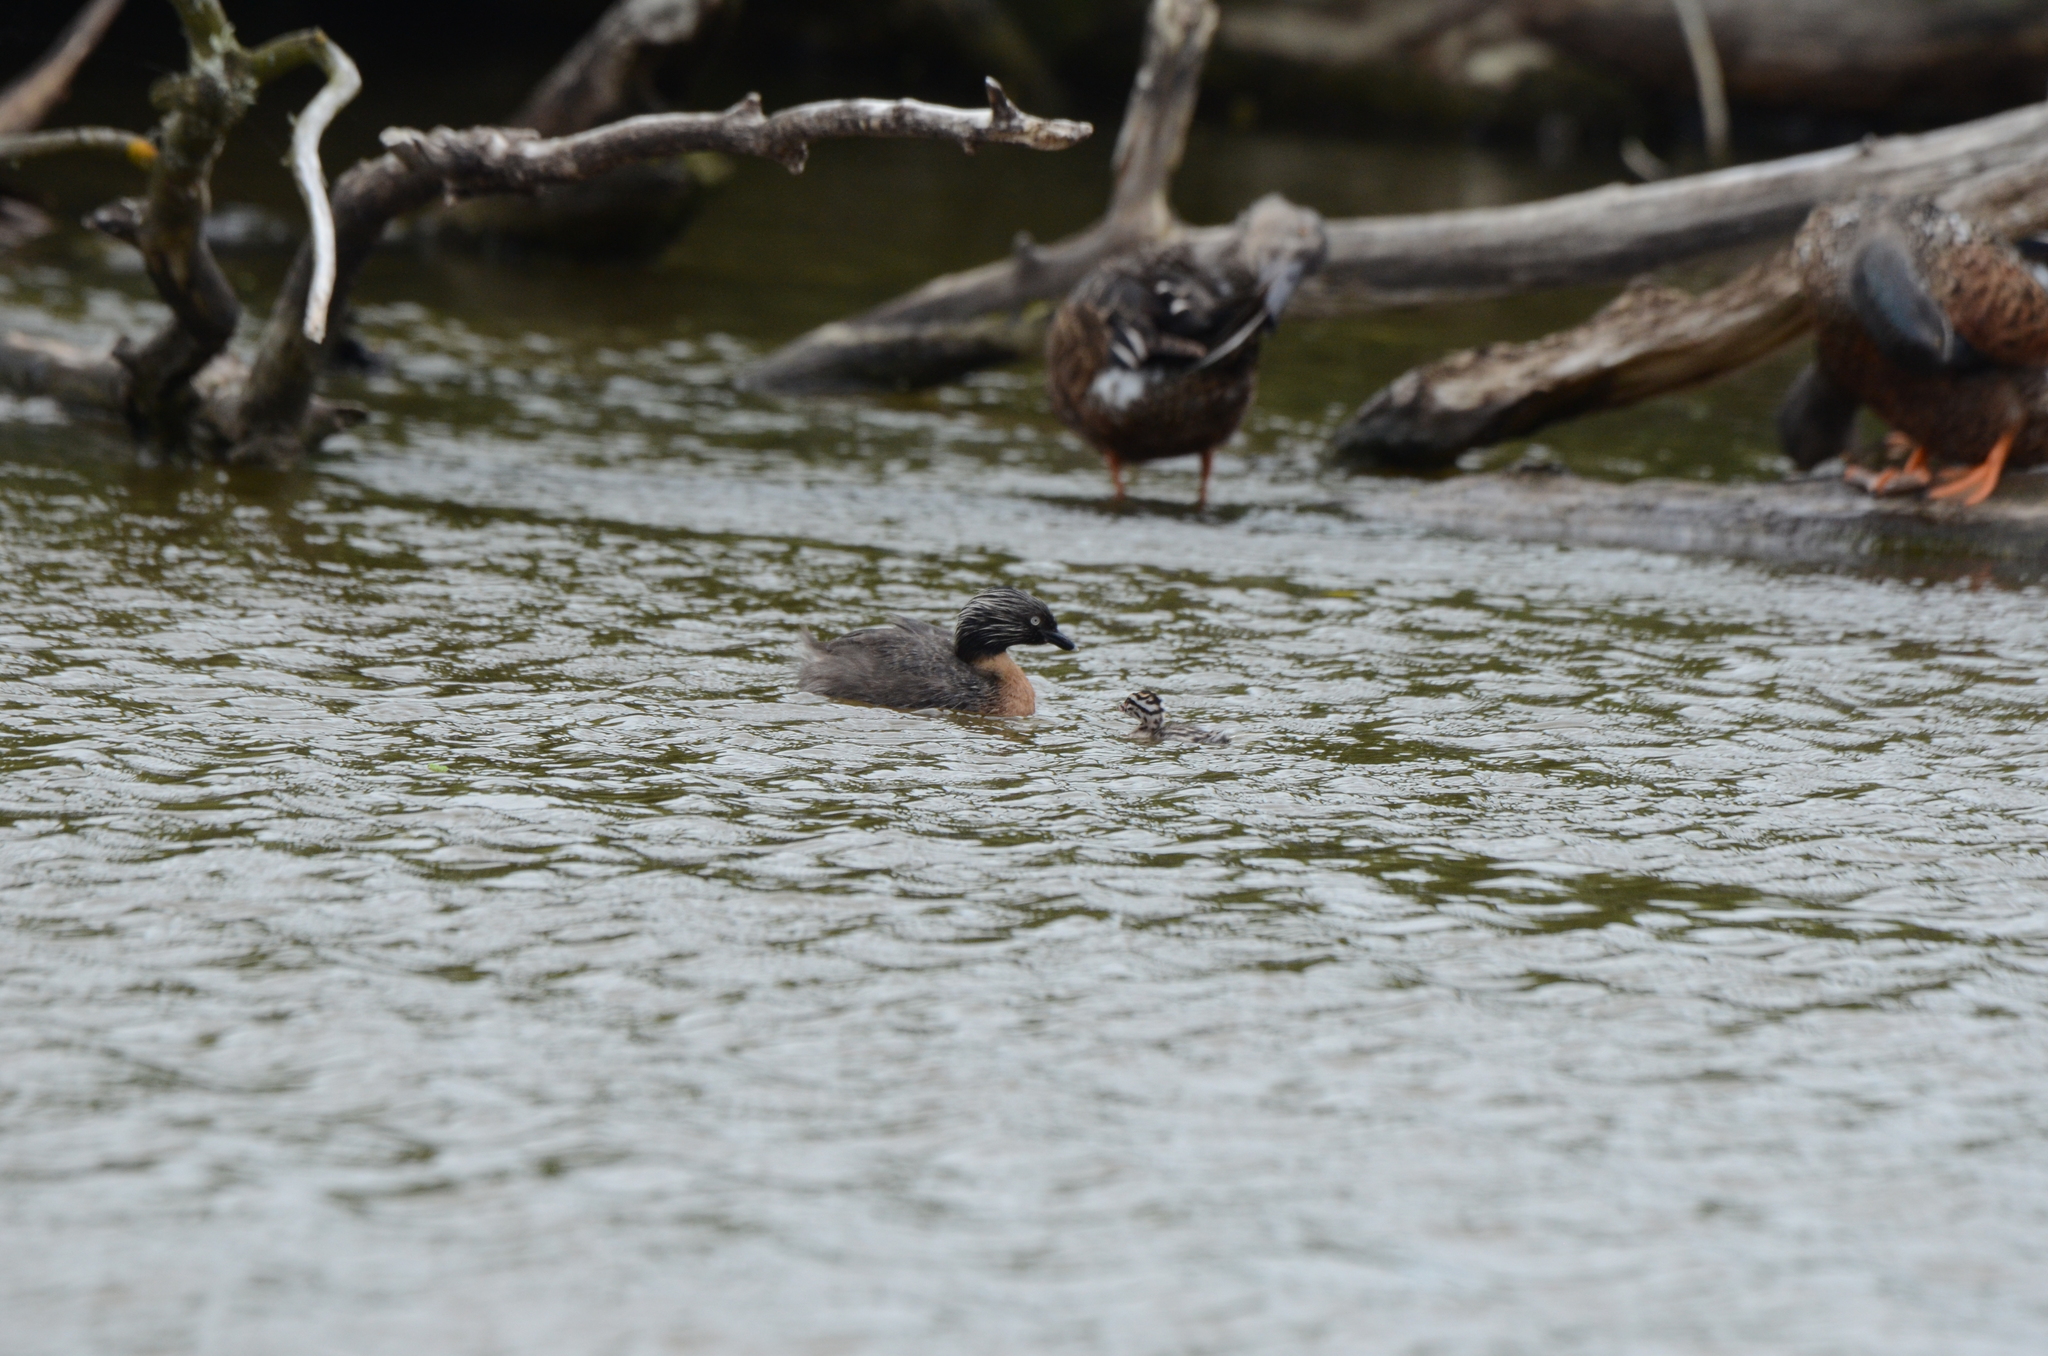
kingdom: Animalia
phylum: Chordata
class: Aves
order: Podicipediformes
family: Podicipedidae
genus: Poliocephalus
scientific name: Poliocephalus rufopectus
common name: New zealand grebe
